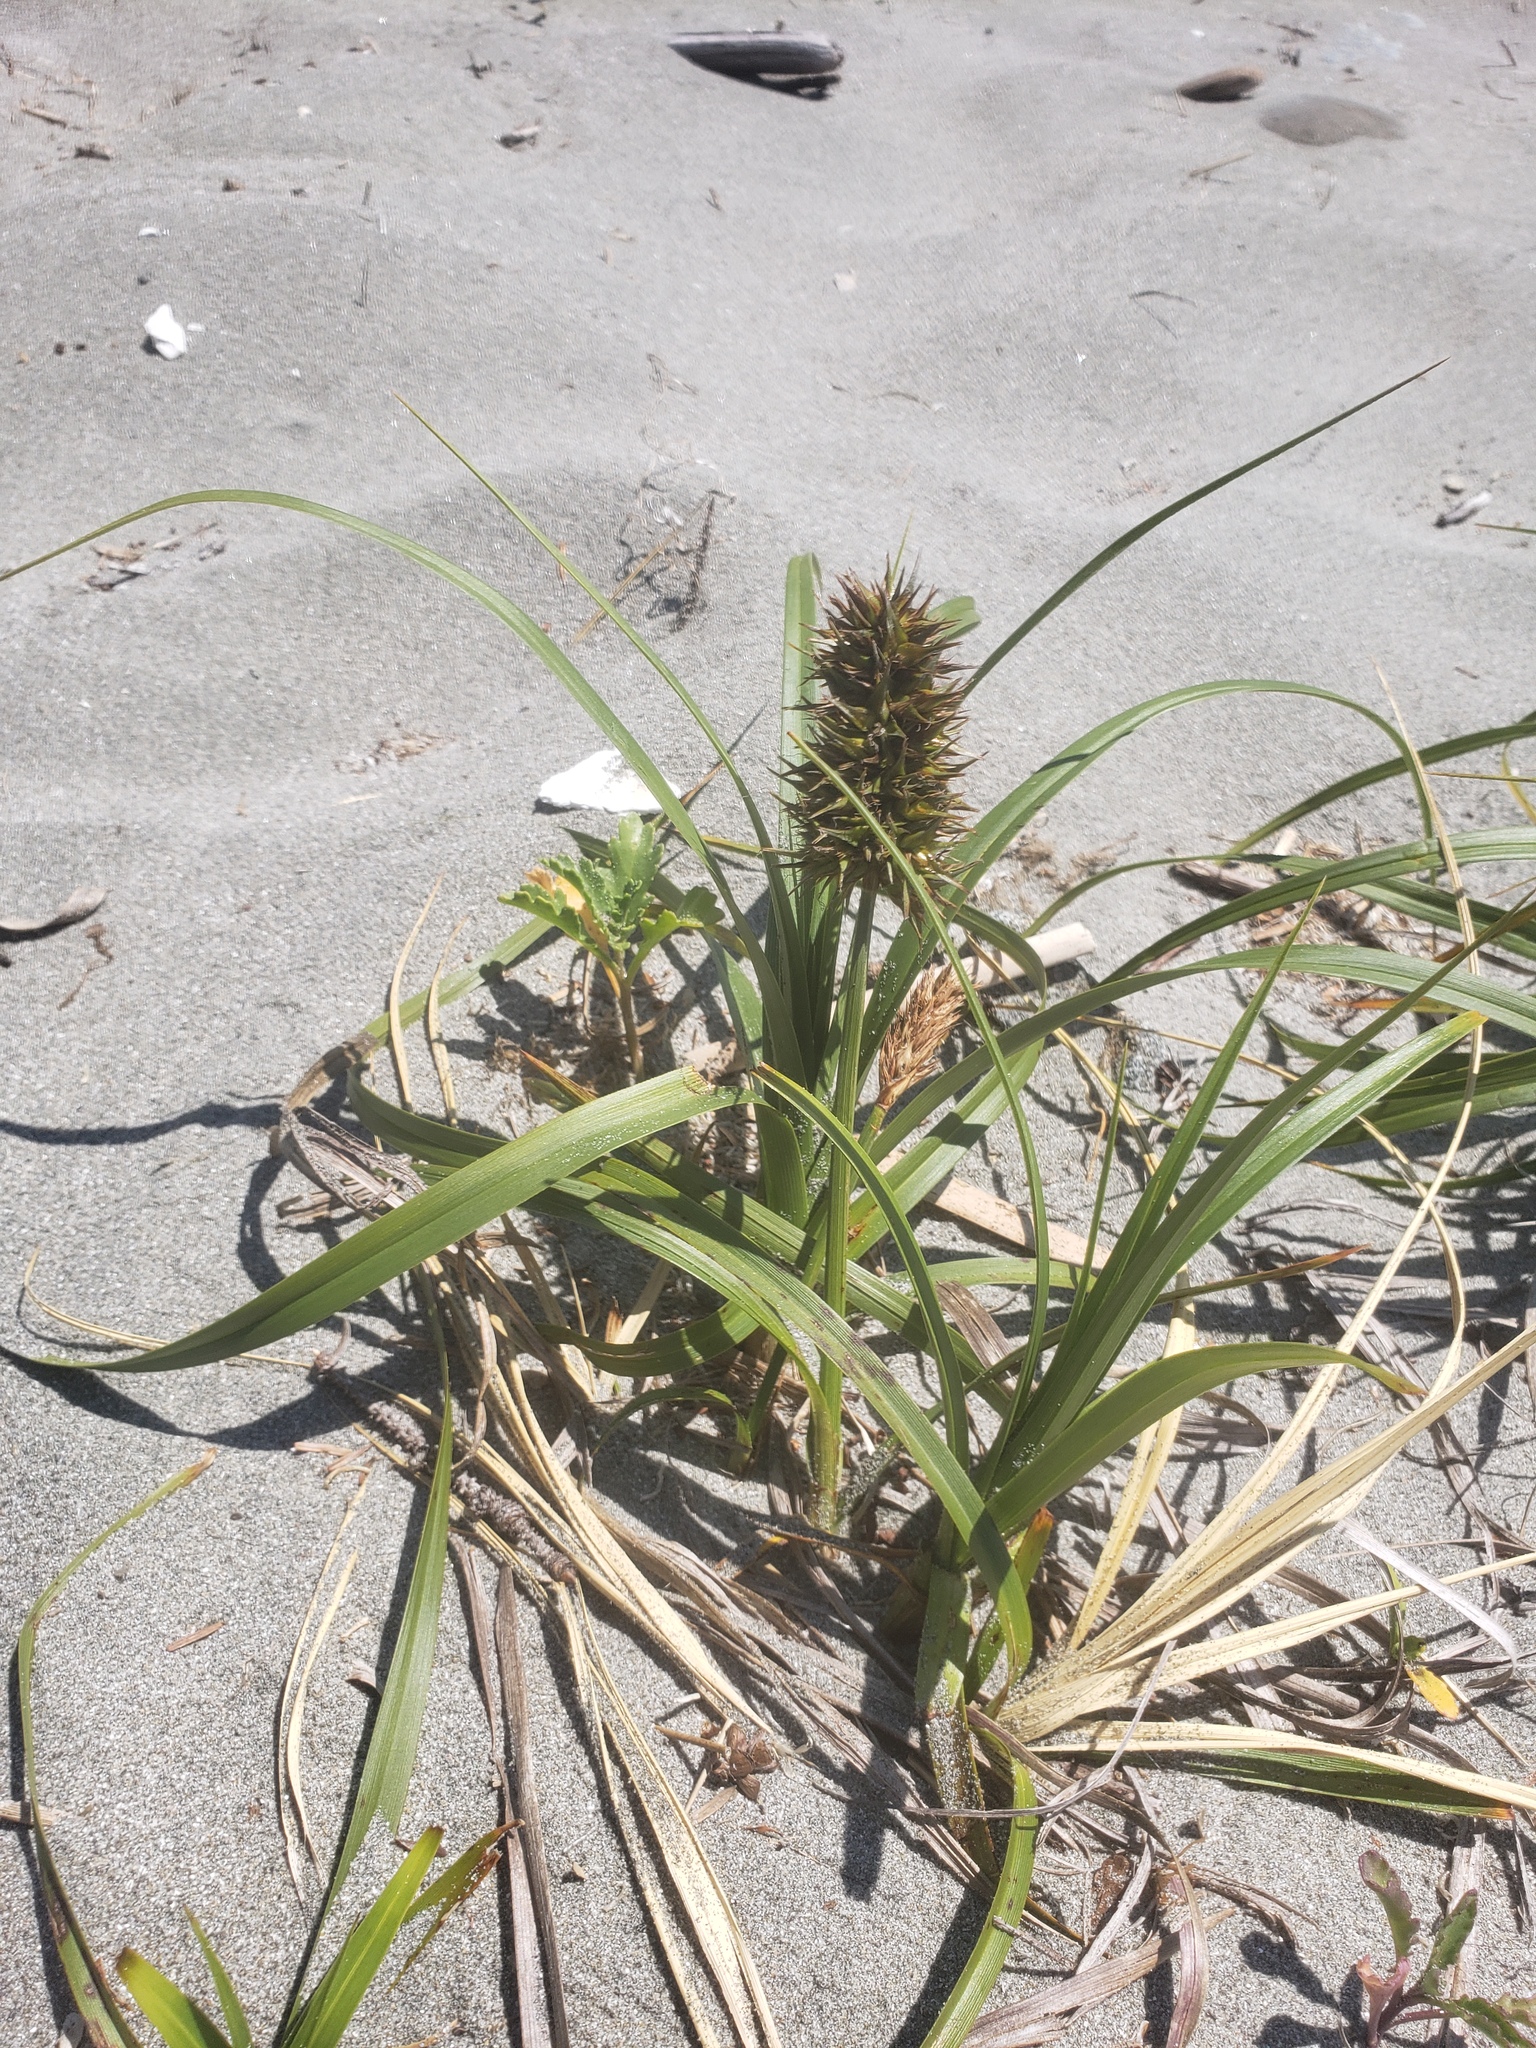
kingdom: Plantae
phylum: Tracheophyta
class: Liliopsida
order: Poales
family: Cyperaceae
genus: Carex
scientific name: Carex macrocephala
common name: Large-head sedge
